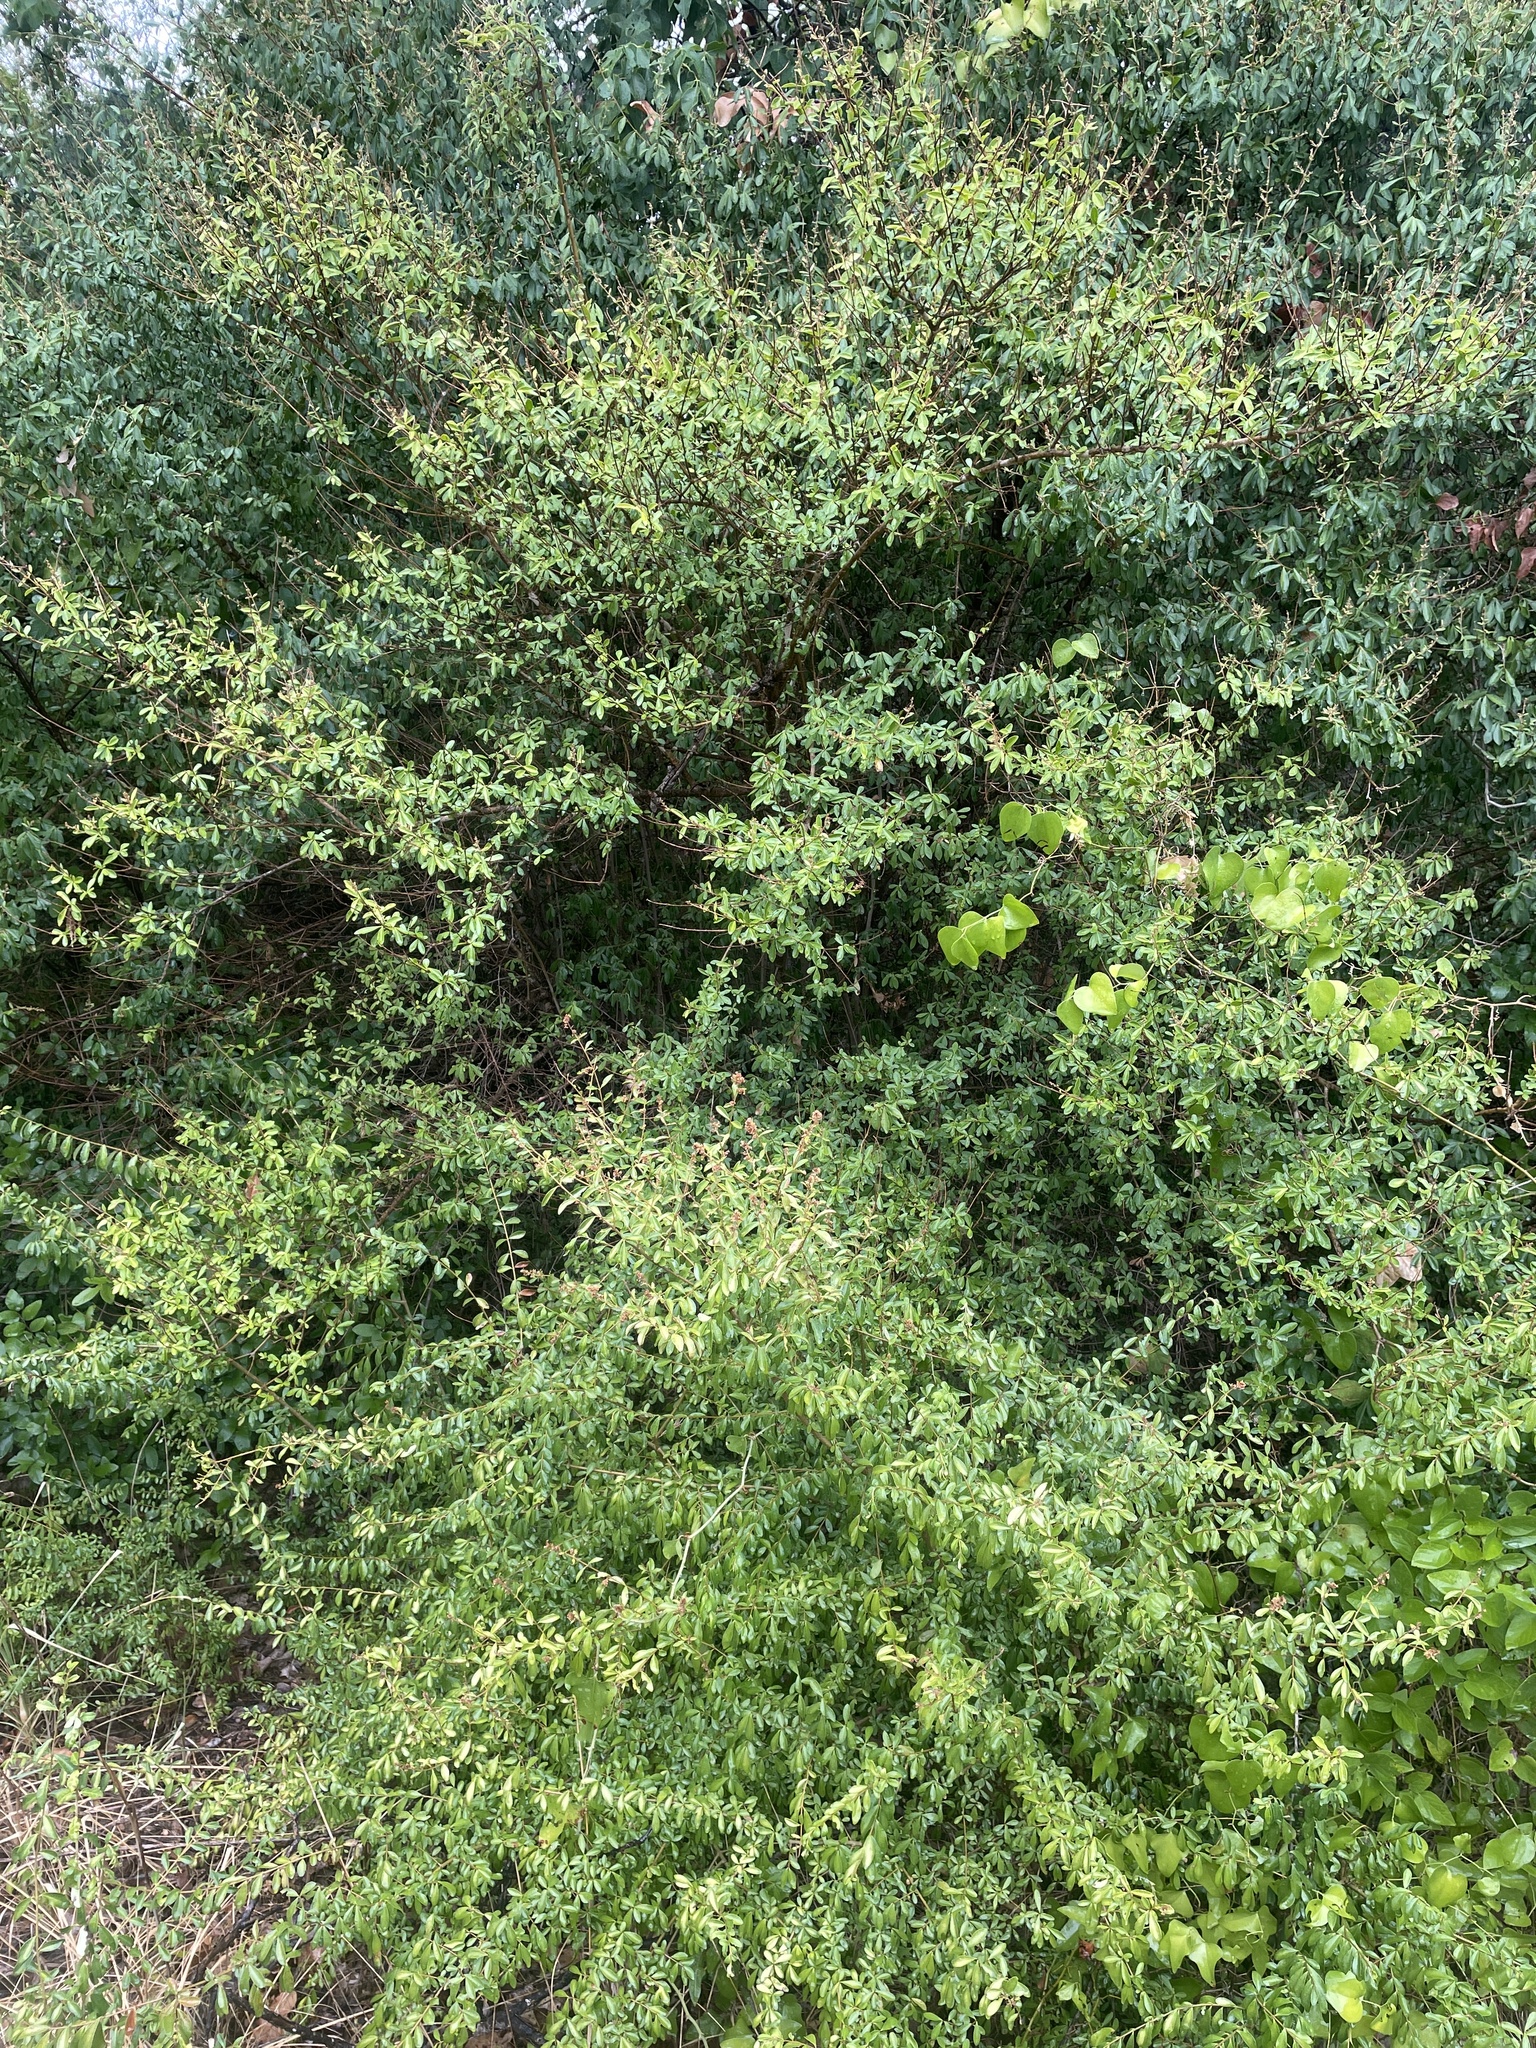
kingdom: Plantae
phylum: Tracheophyta
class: Magnoliopsida
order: Lamiales
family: Oleaceae
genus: Ligustrum
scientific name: Ligustrum sinense
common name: Chinese privet
